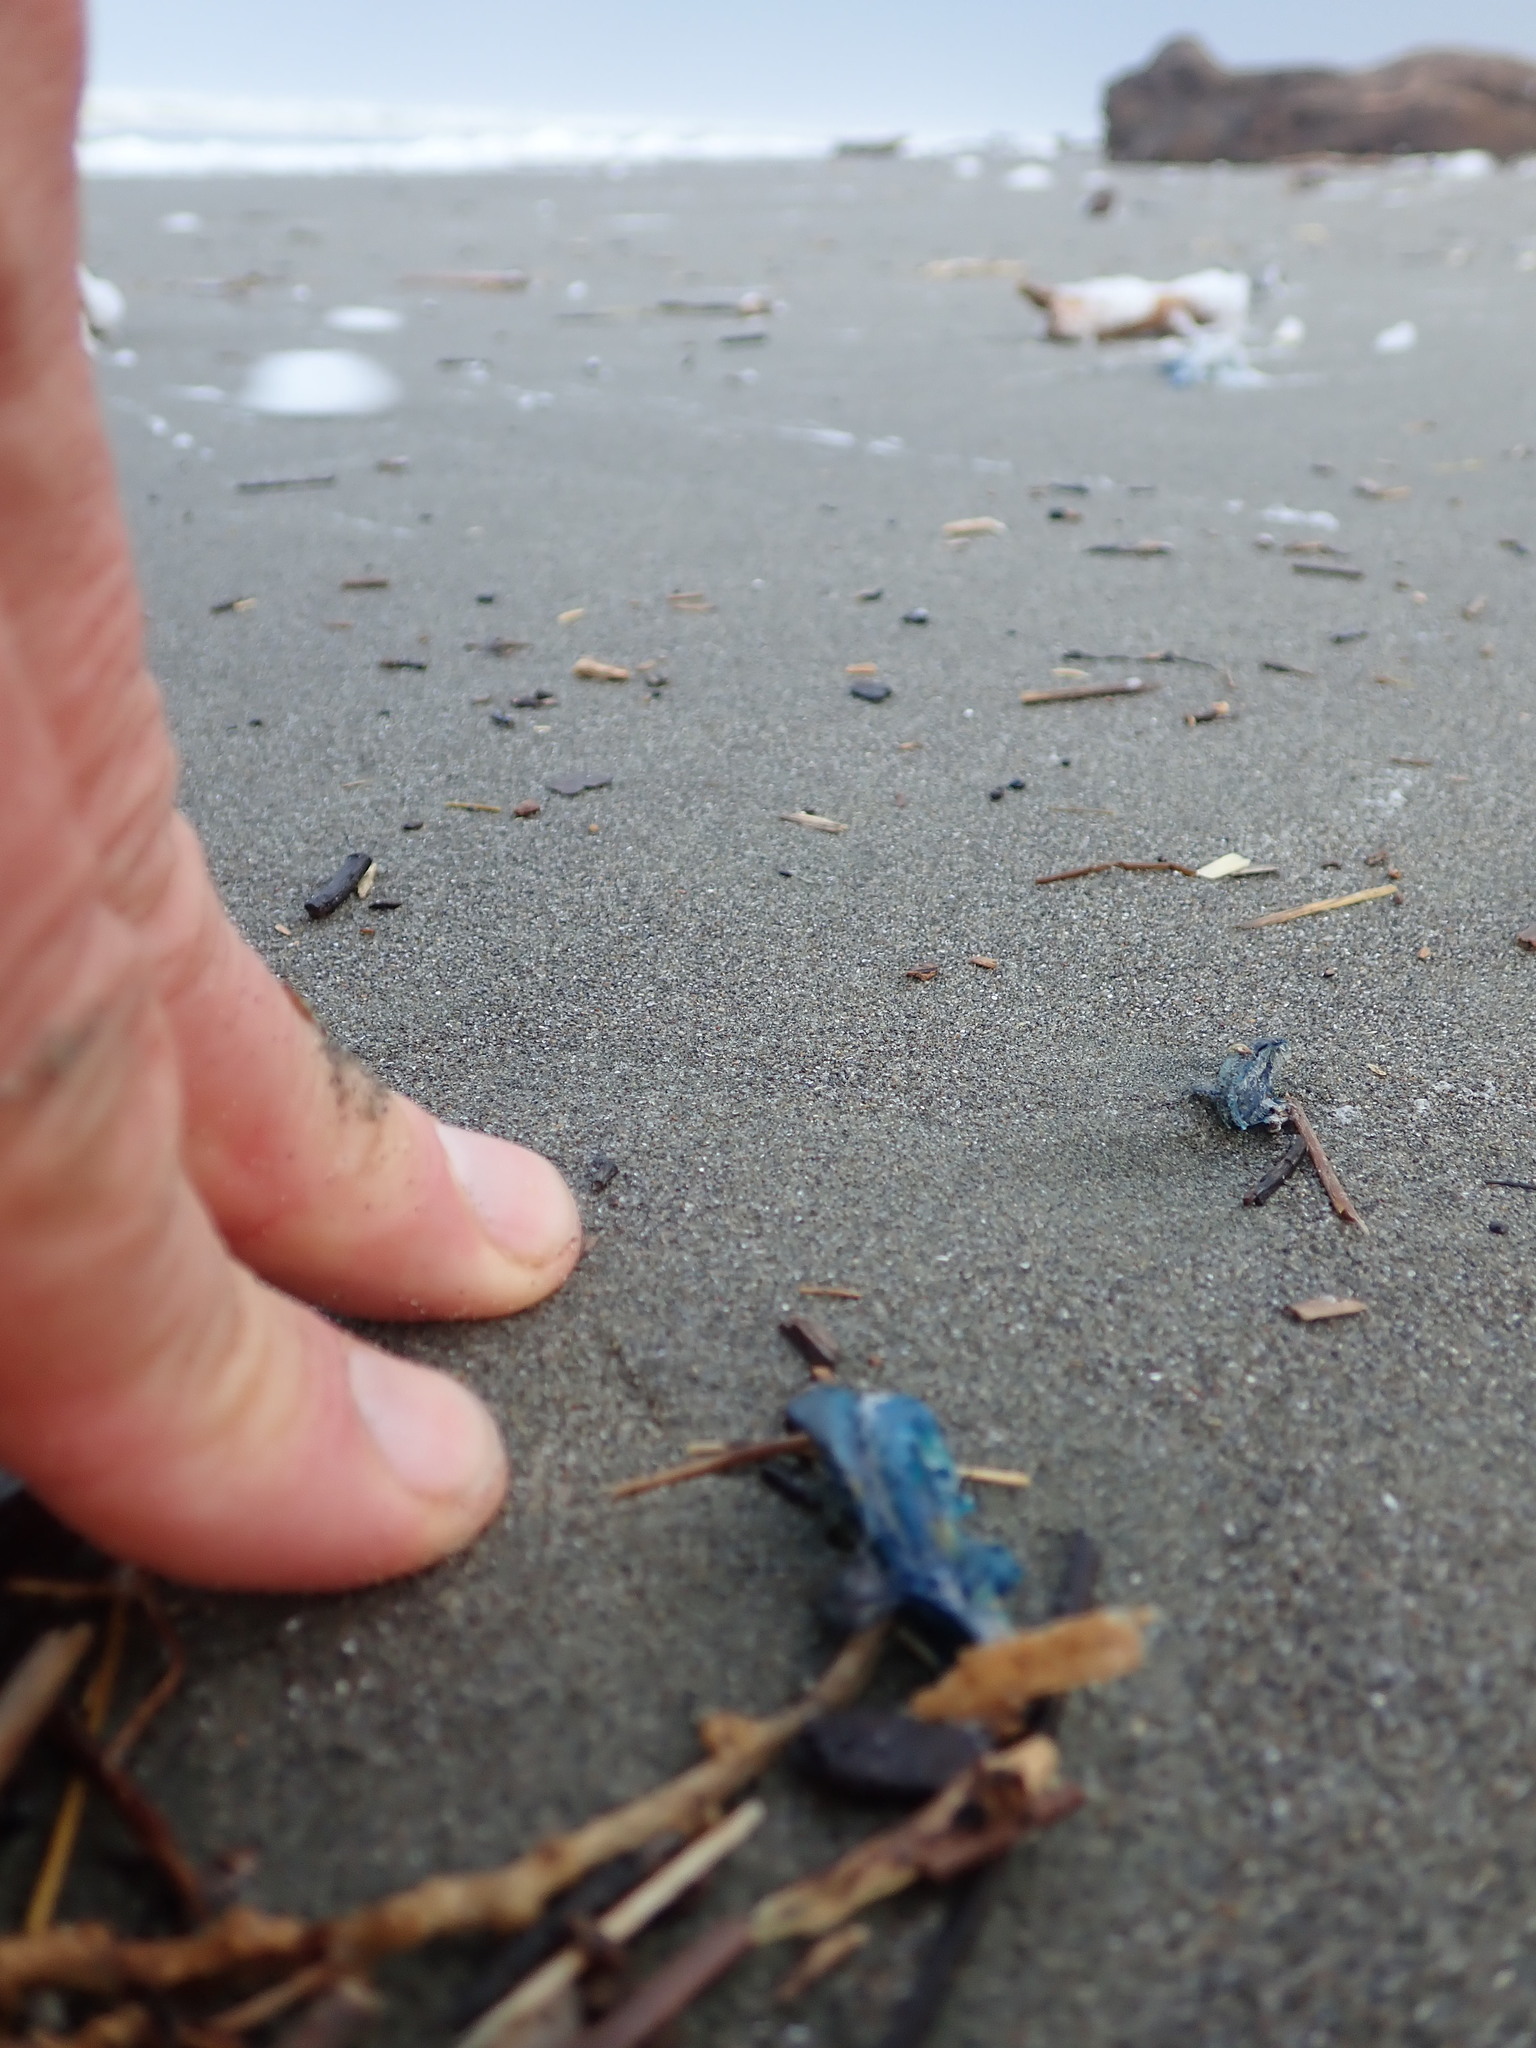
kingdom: Animalia
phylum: Cnidaria
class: Hydrozoa
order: Anthoathecata
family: Porpitidae
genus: Velella
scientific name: Velella velella
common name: By-the-wind-sailor
